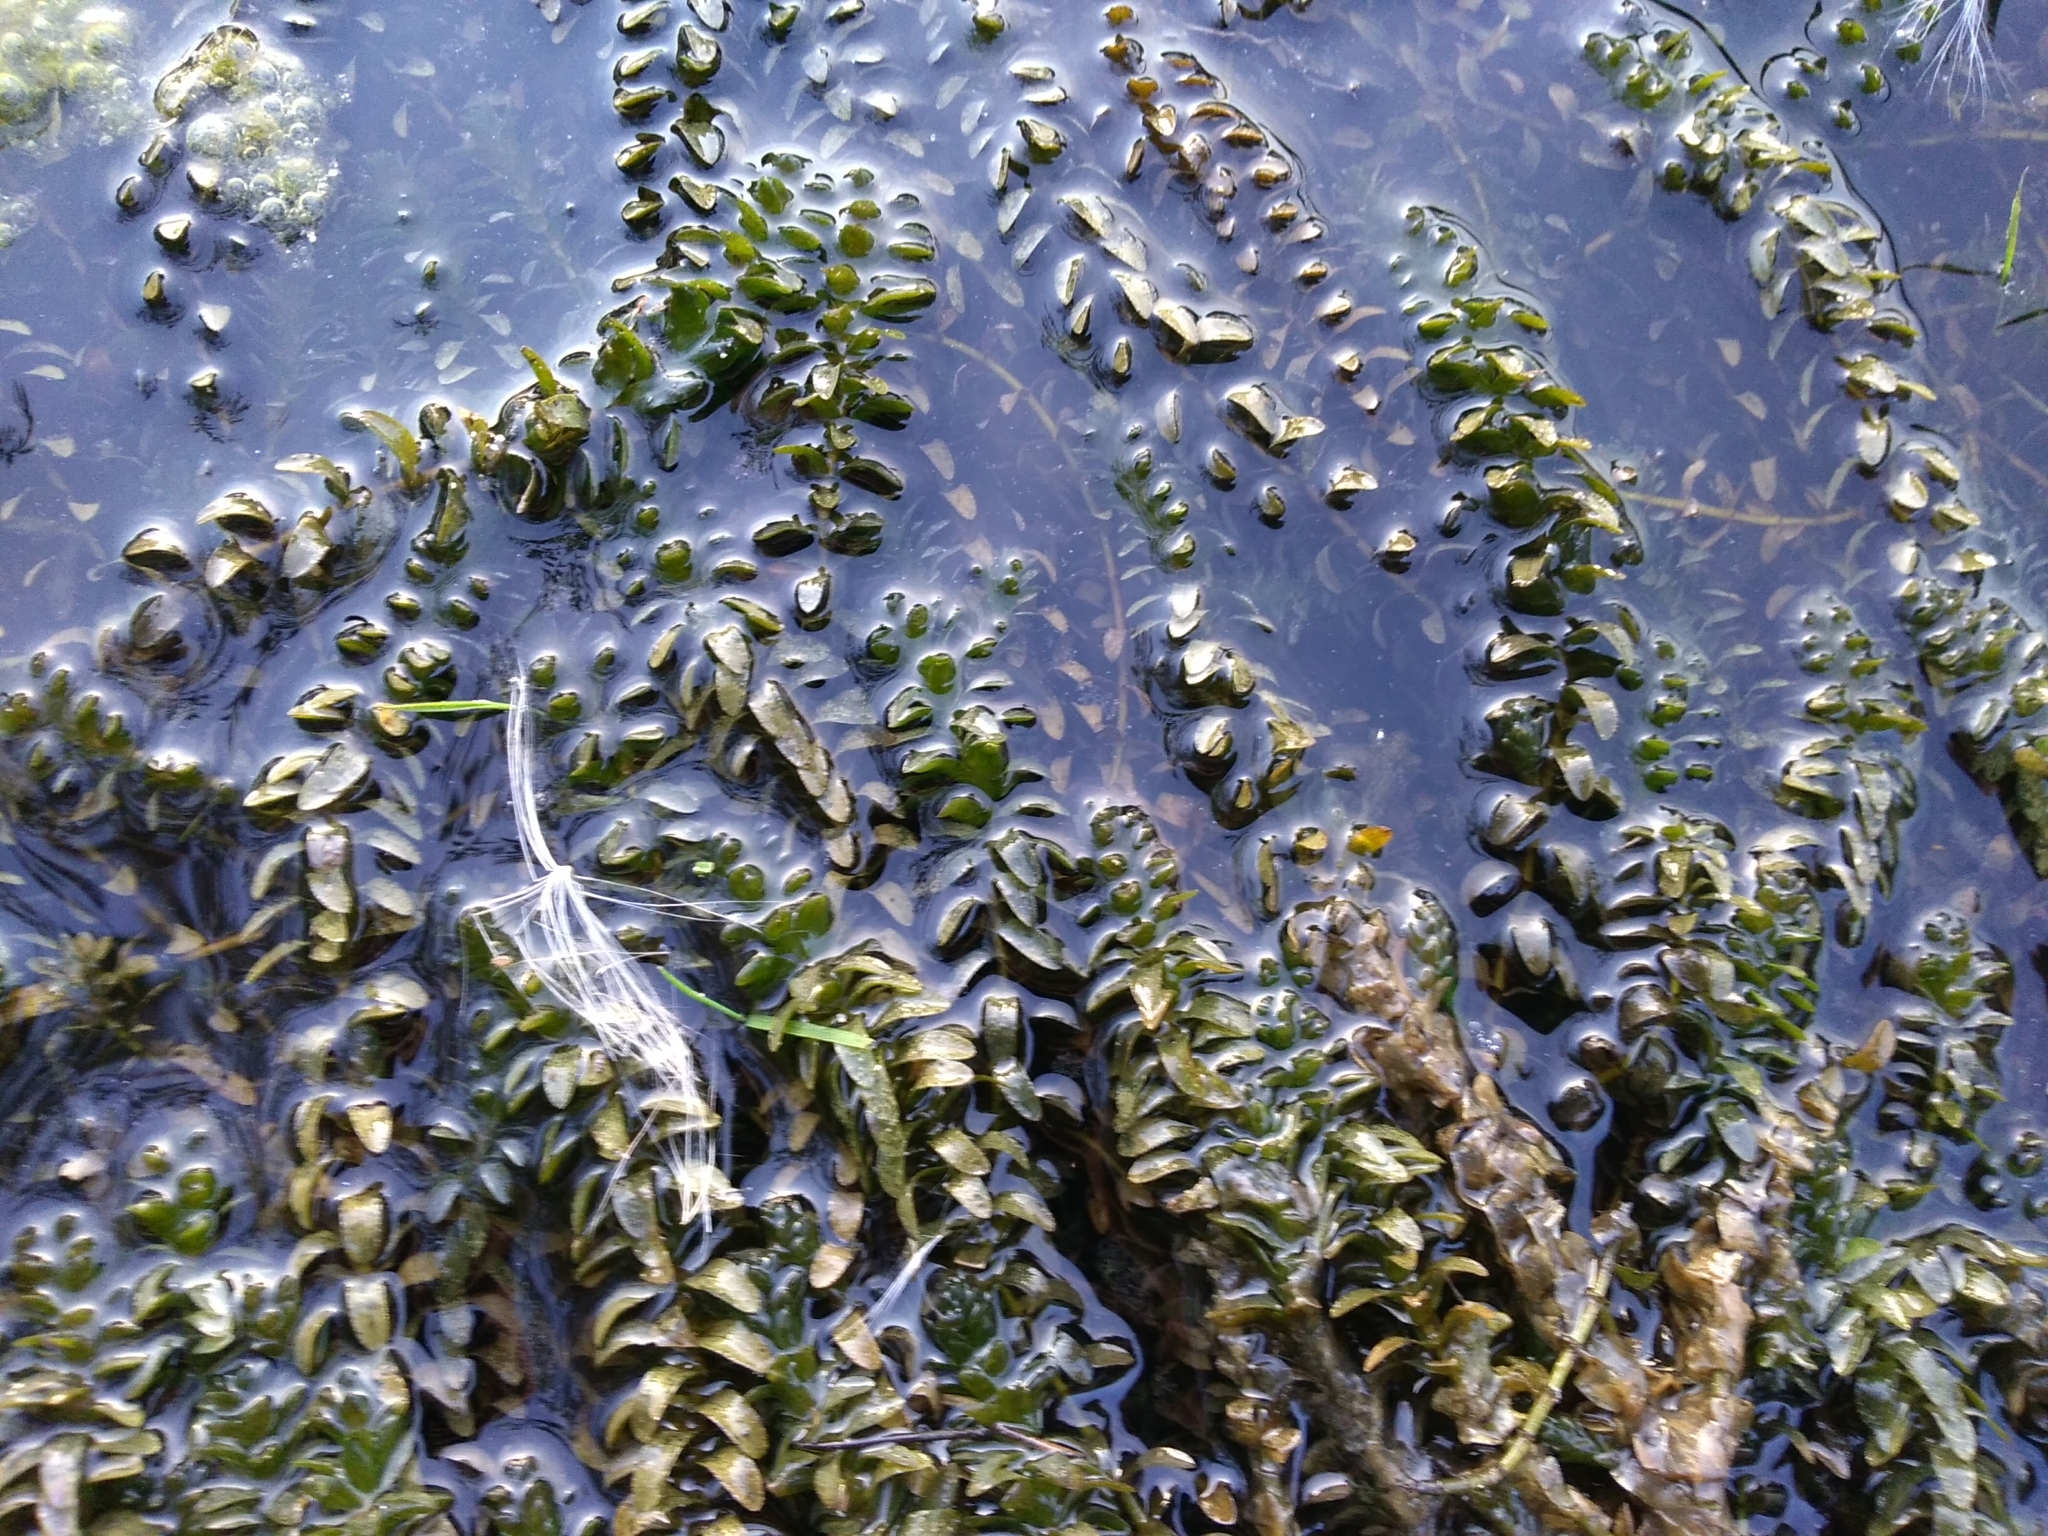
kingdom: Plantae
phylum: Tracheophyta
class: Liliopsida
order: Alismatales
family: Hydrocharitaceae
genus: Elodea
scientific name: Elodea canadensis
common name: Canadian waterweed
